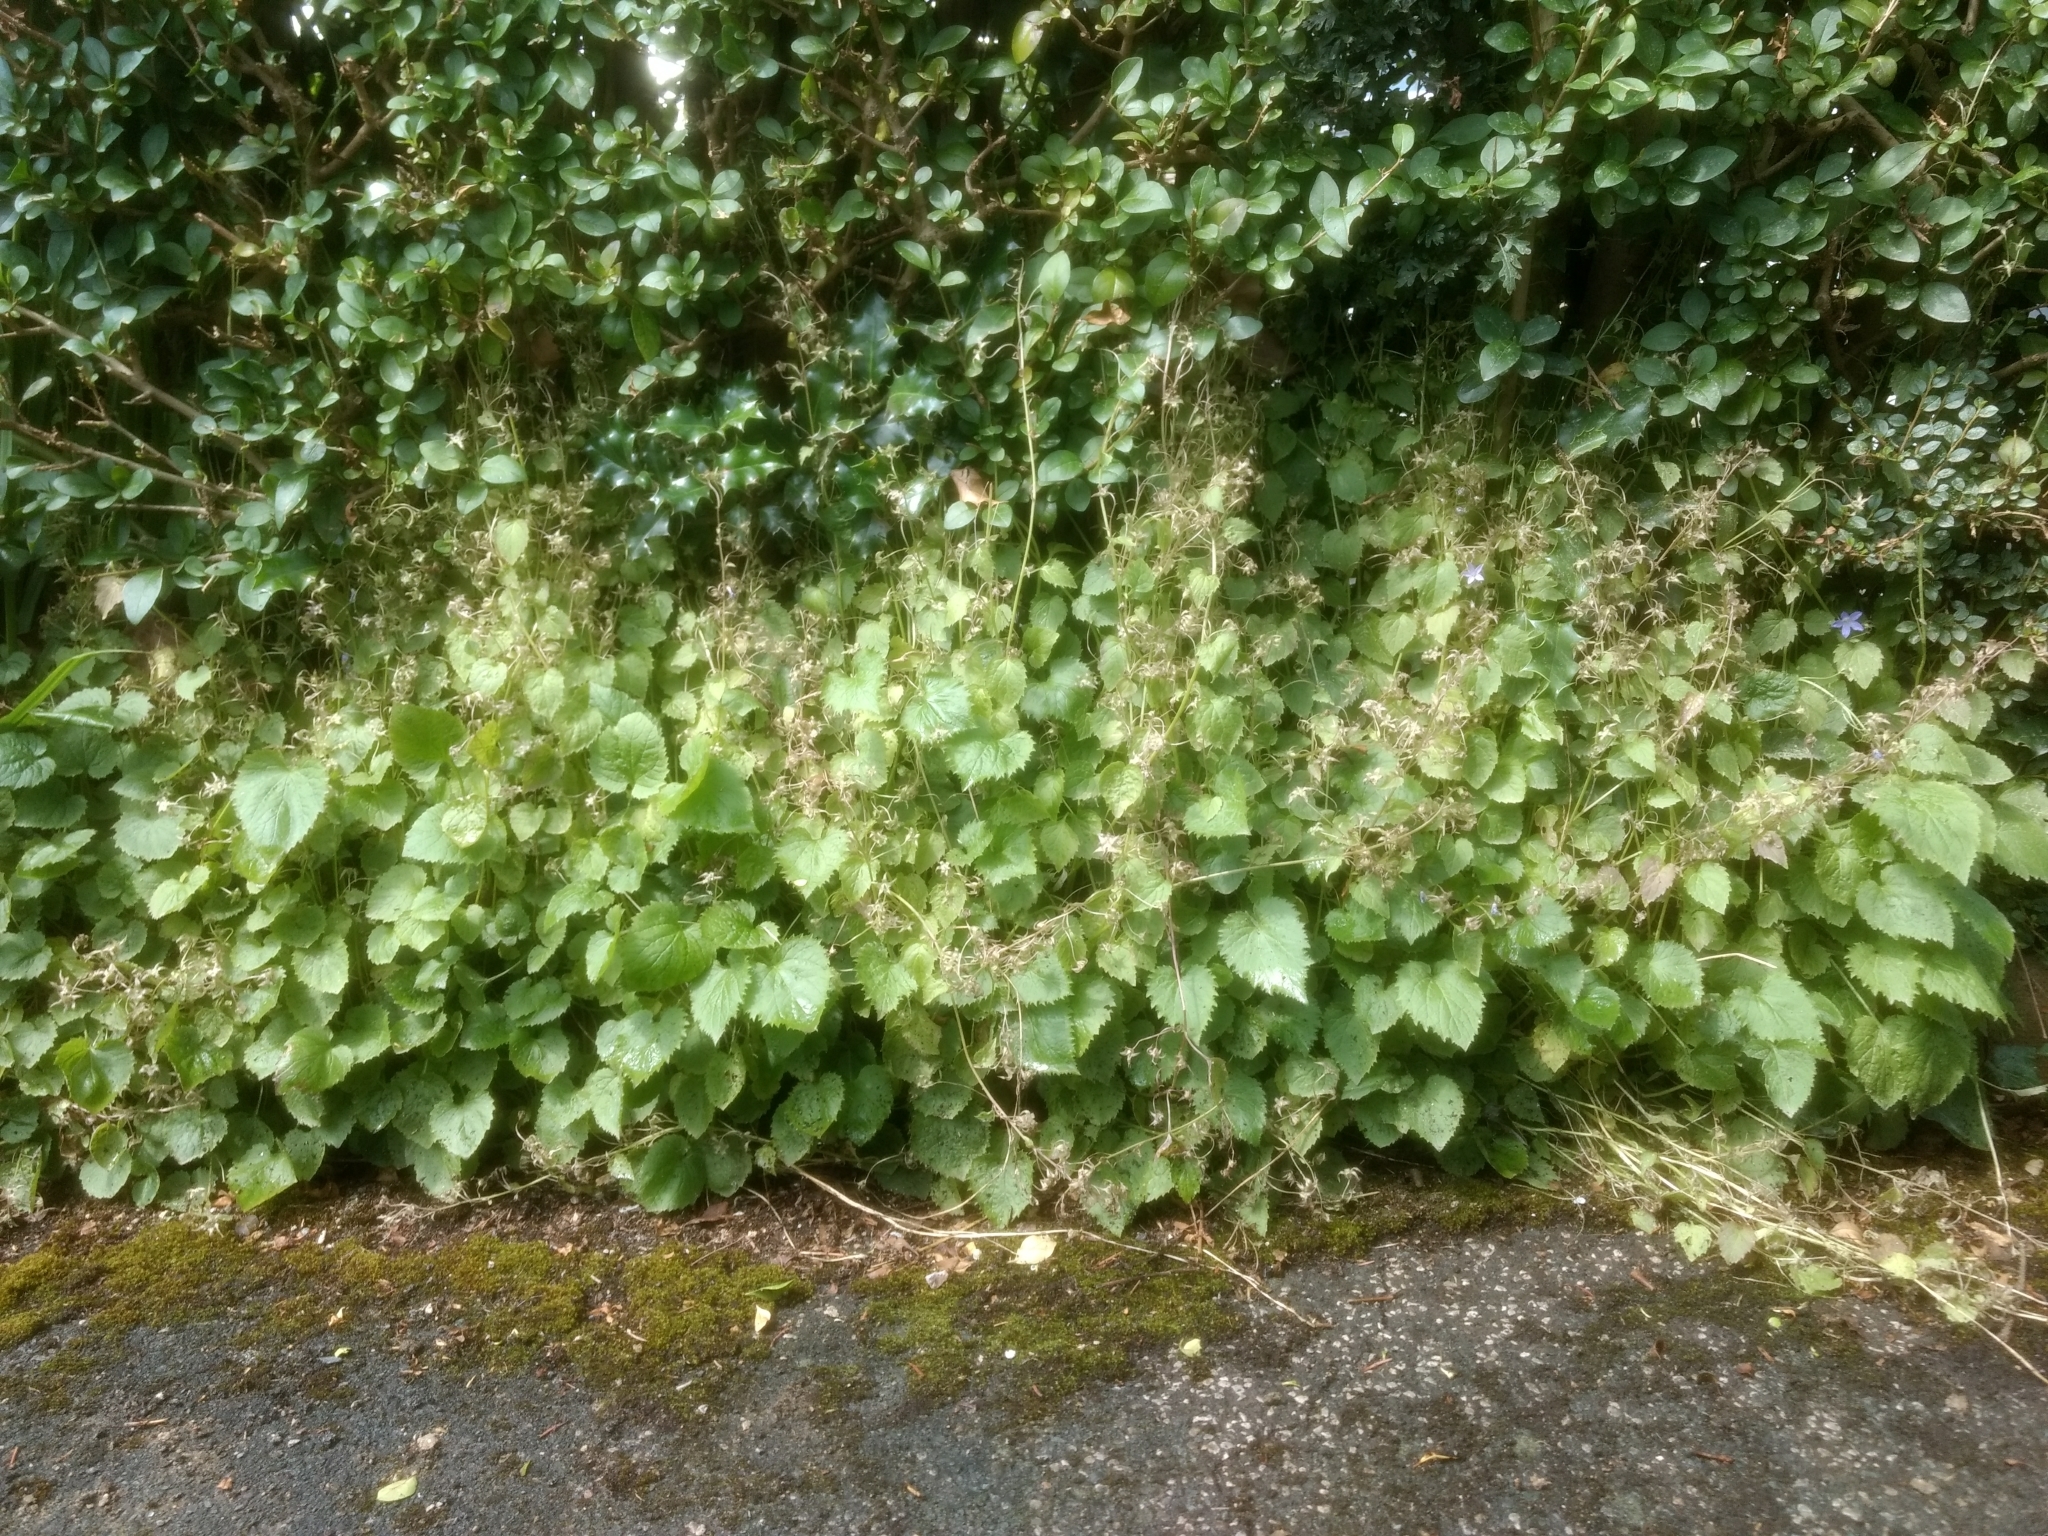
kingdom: Plantae
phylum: Tracheophyta
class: Magnoliopsida
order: Asterales
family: Campanulaceae
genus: Campanula
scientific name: Campanula poscharskyana
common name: Trailing bellflower
